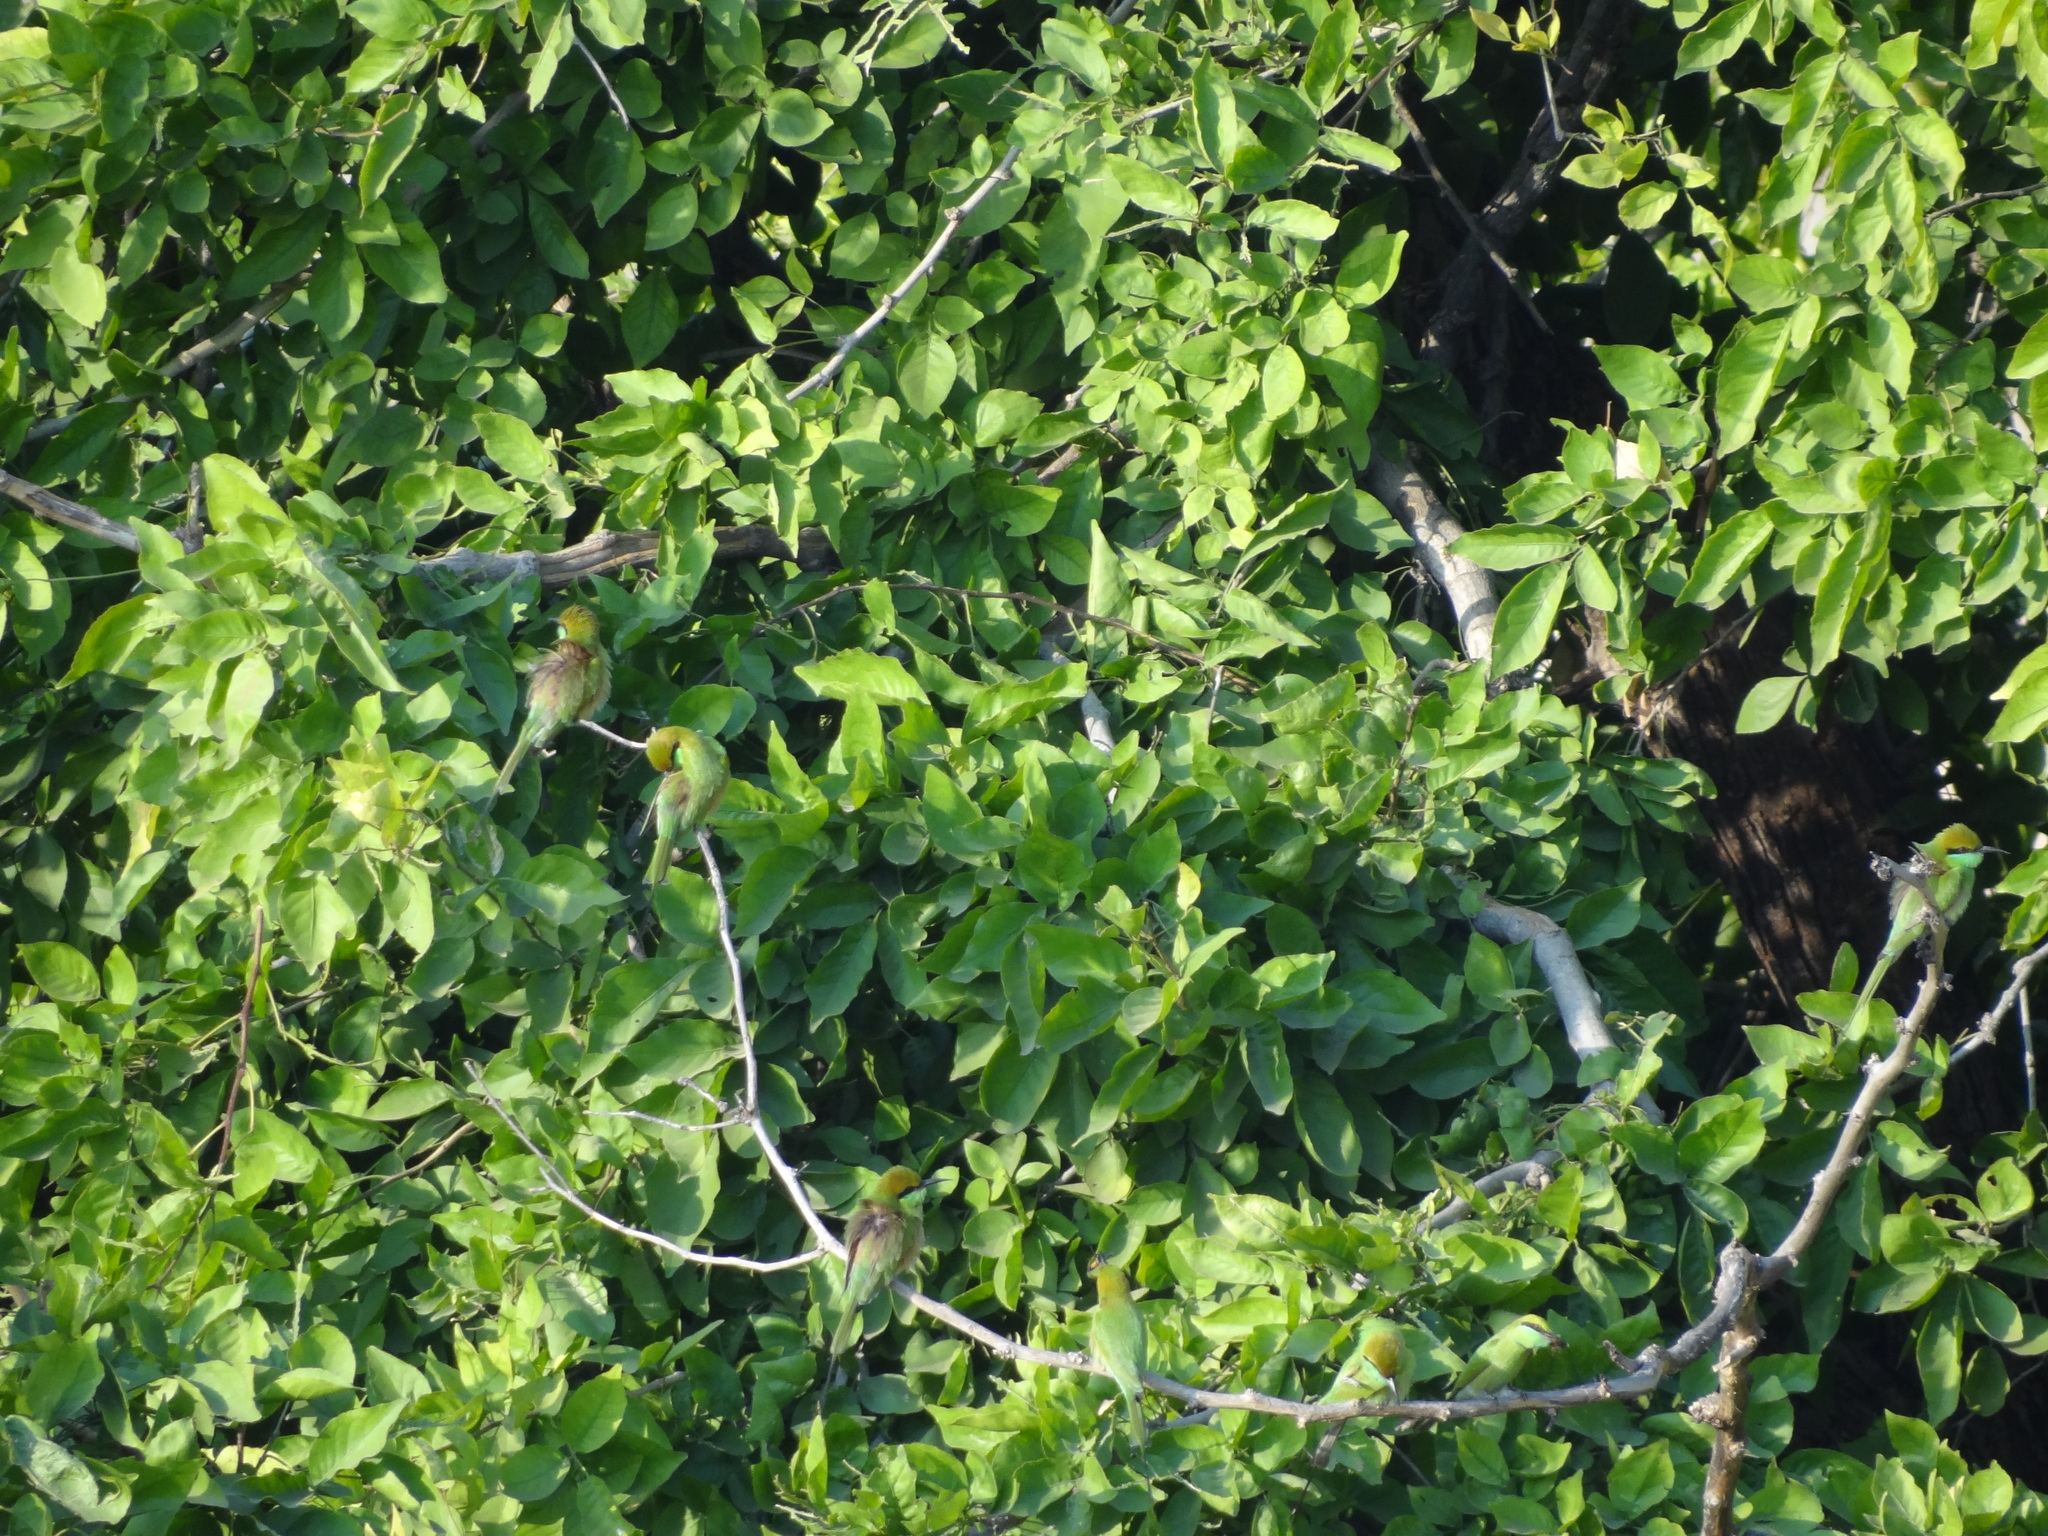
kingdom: Animalia
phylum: Chordata
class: Aves
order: Coraciiformes
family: Meropidae
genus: Merops
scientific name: Merops orientalis
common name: Green bee-eater
